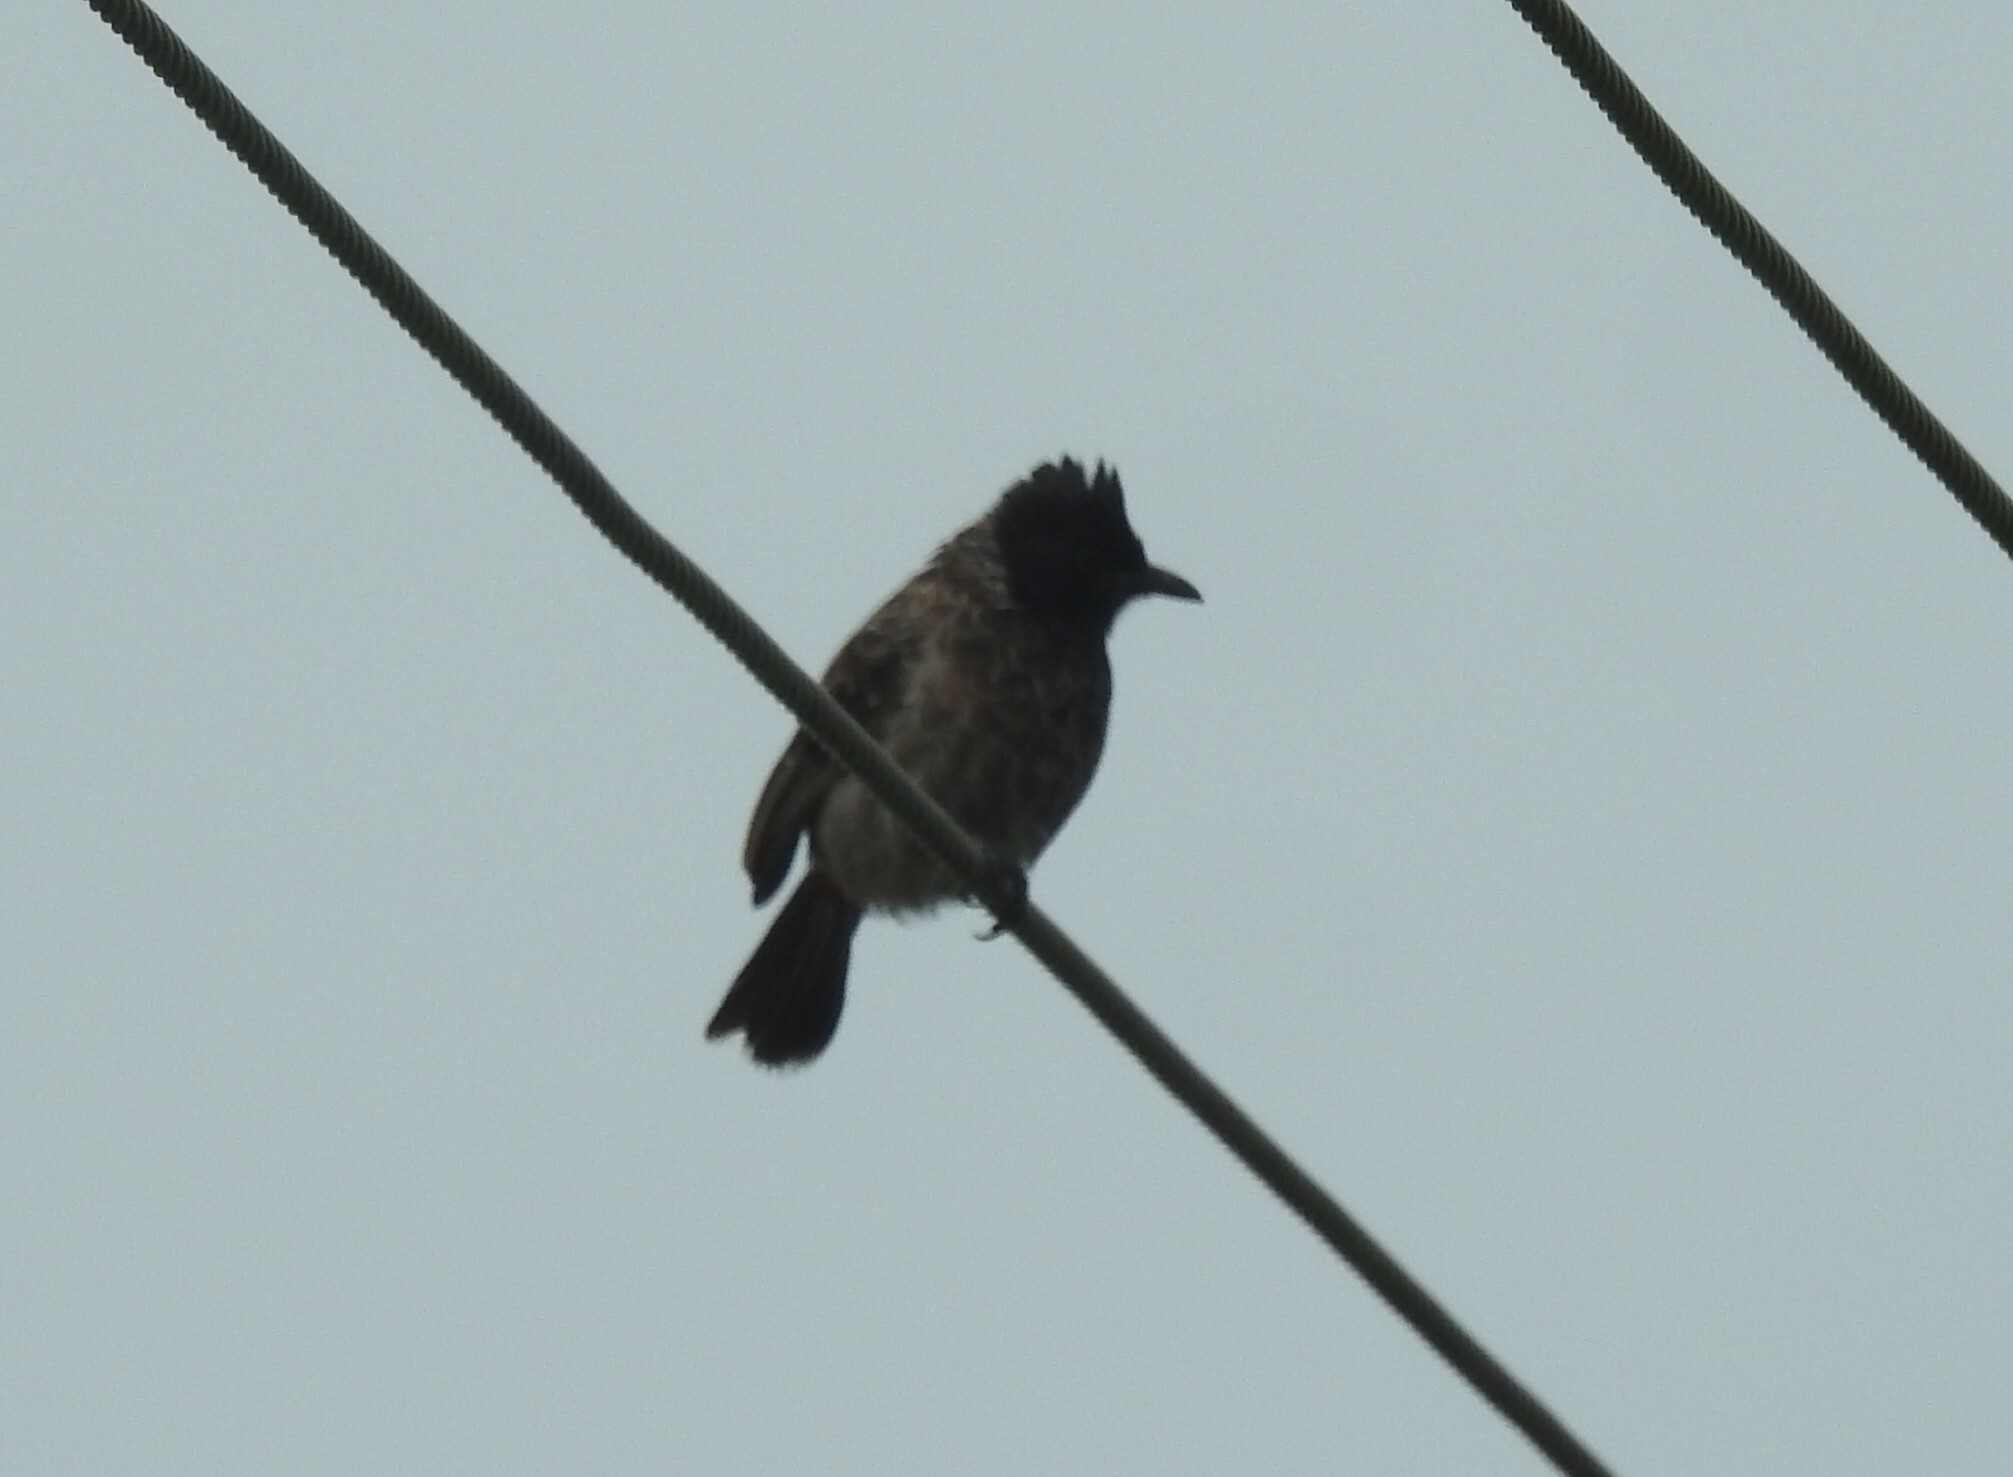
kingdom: Animalia
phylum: Chordata
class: Aves
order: Passeriformes
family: Pycnonotidae
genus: Pycnonotus
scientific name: Pycnonotus cafer
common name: Red-vented bulbul
